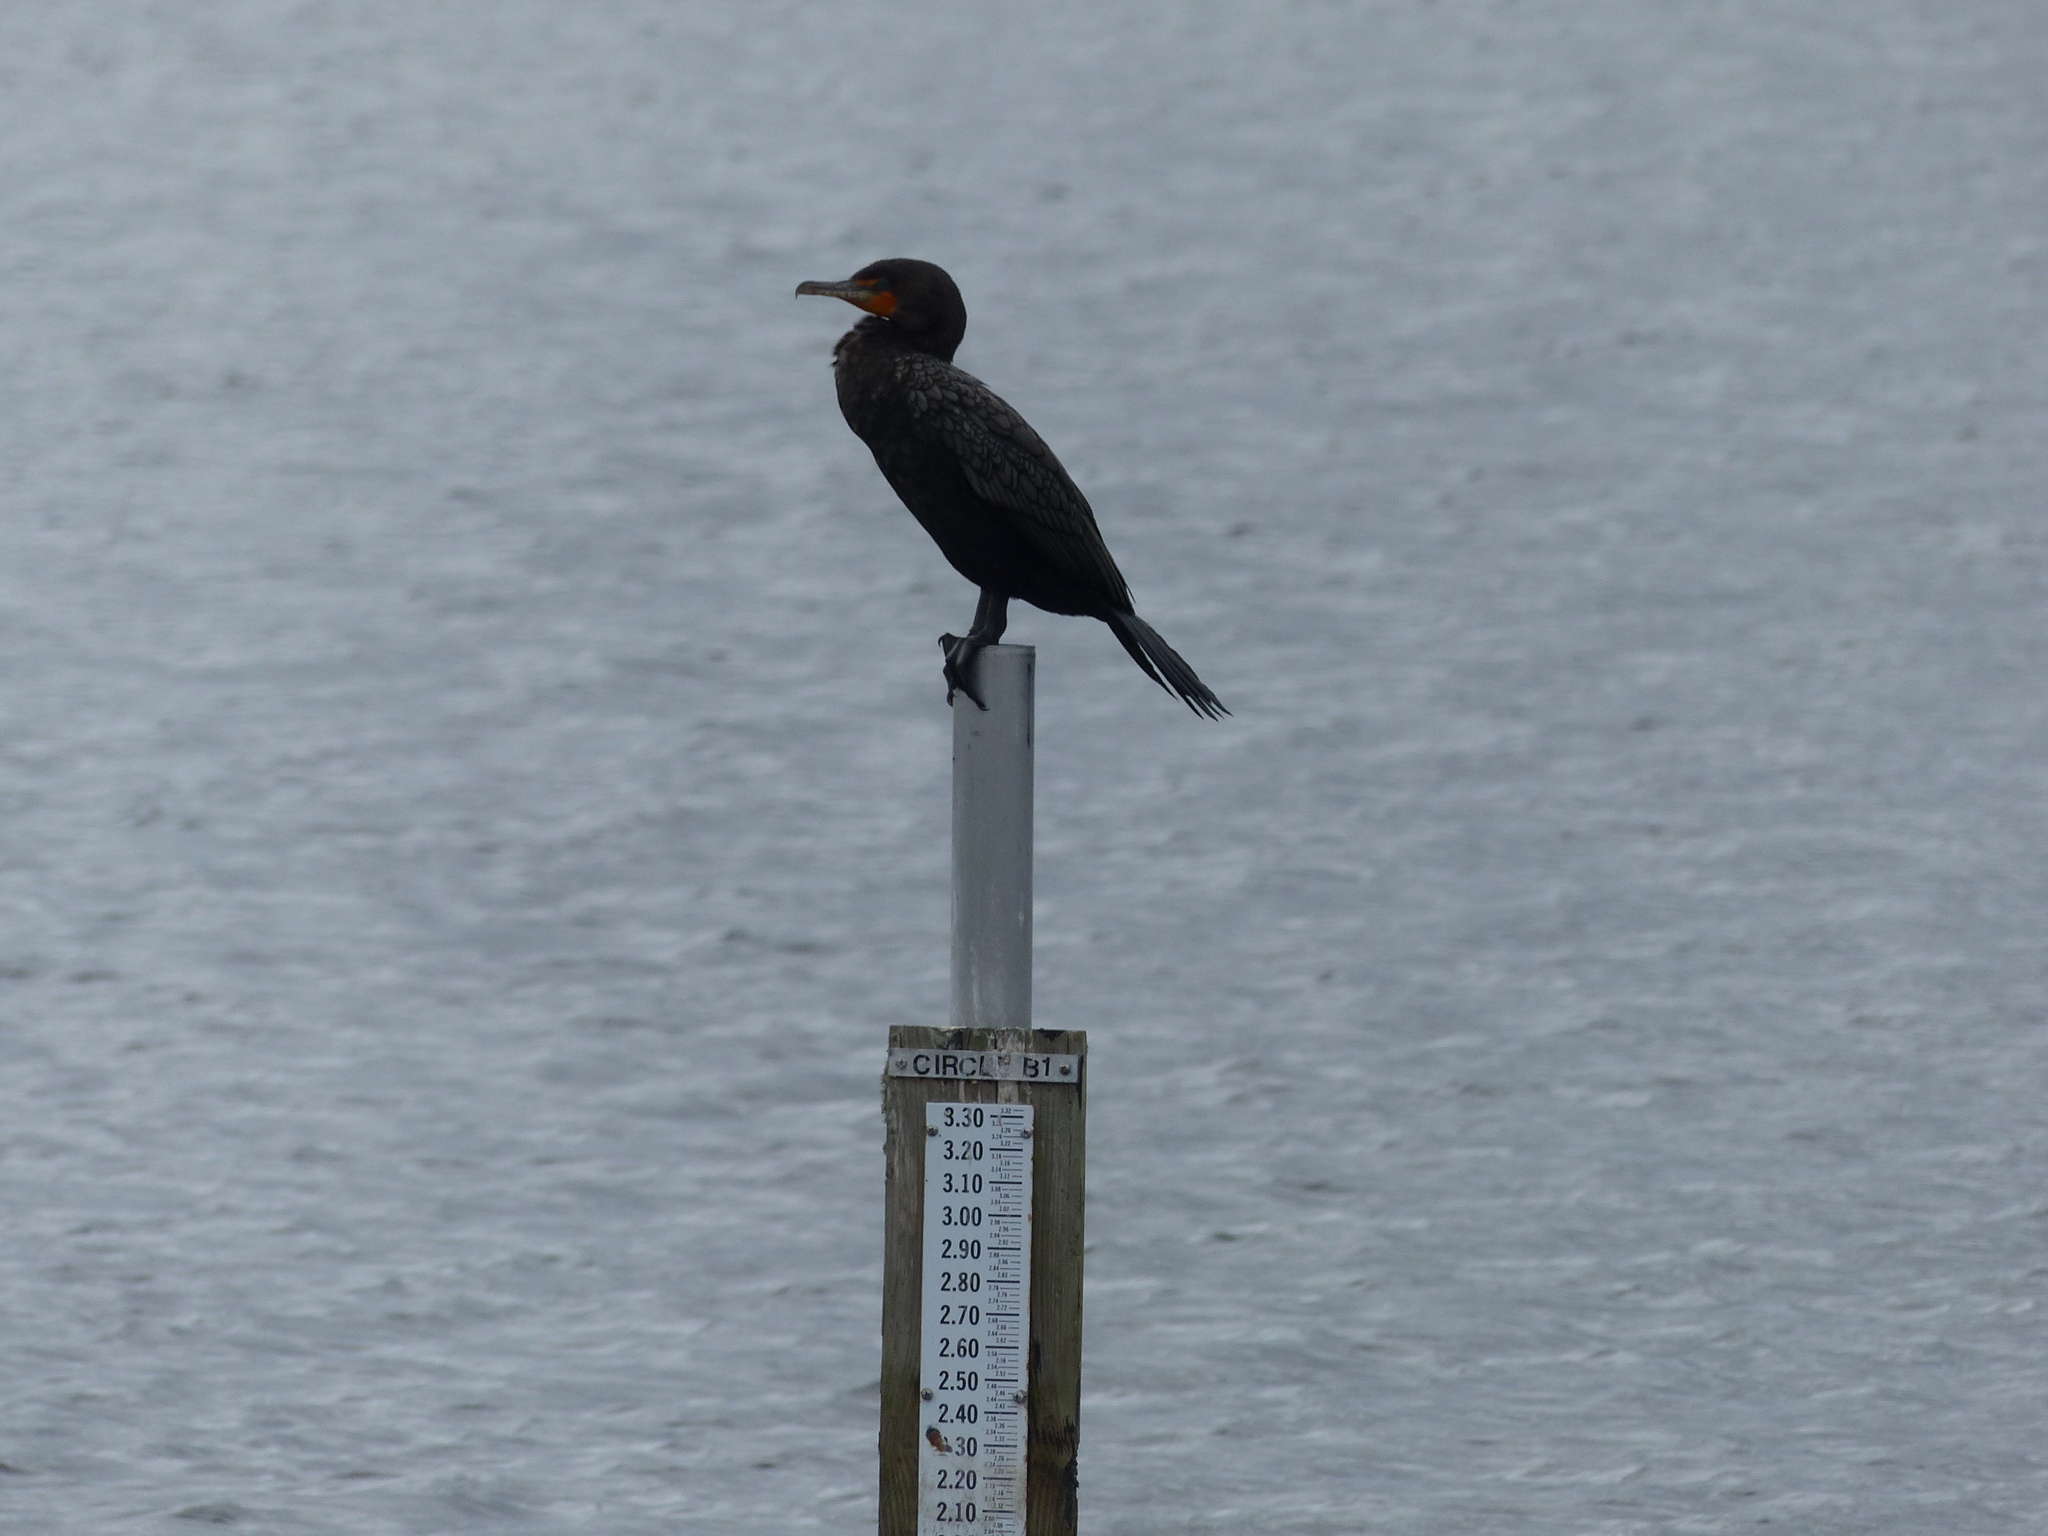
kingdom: Animalia
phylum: Chordata
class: Aves
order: Suliformes
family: Phalacrocoracidae
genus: Phalacrocorax
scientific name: Phalacrocorax auritus
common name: Double-crested cormorant
